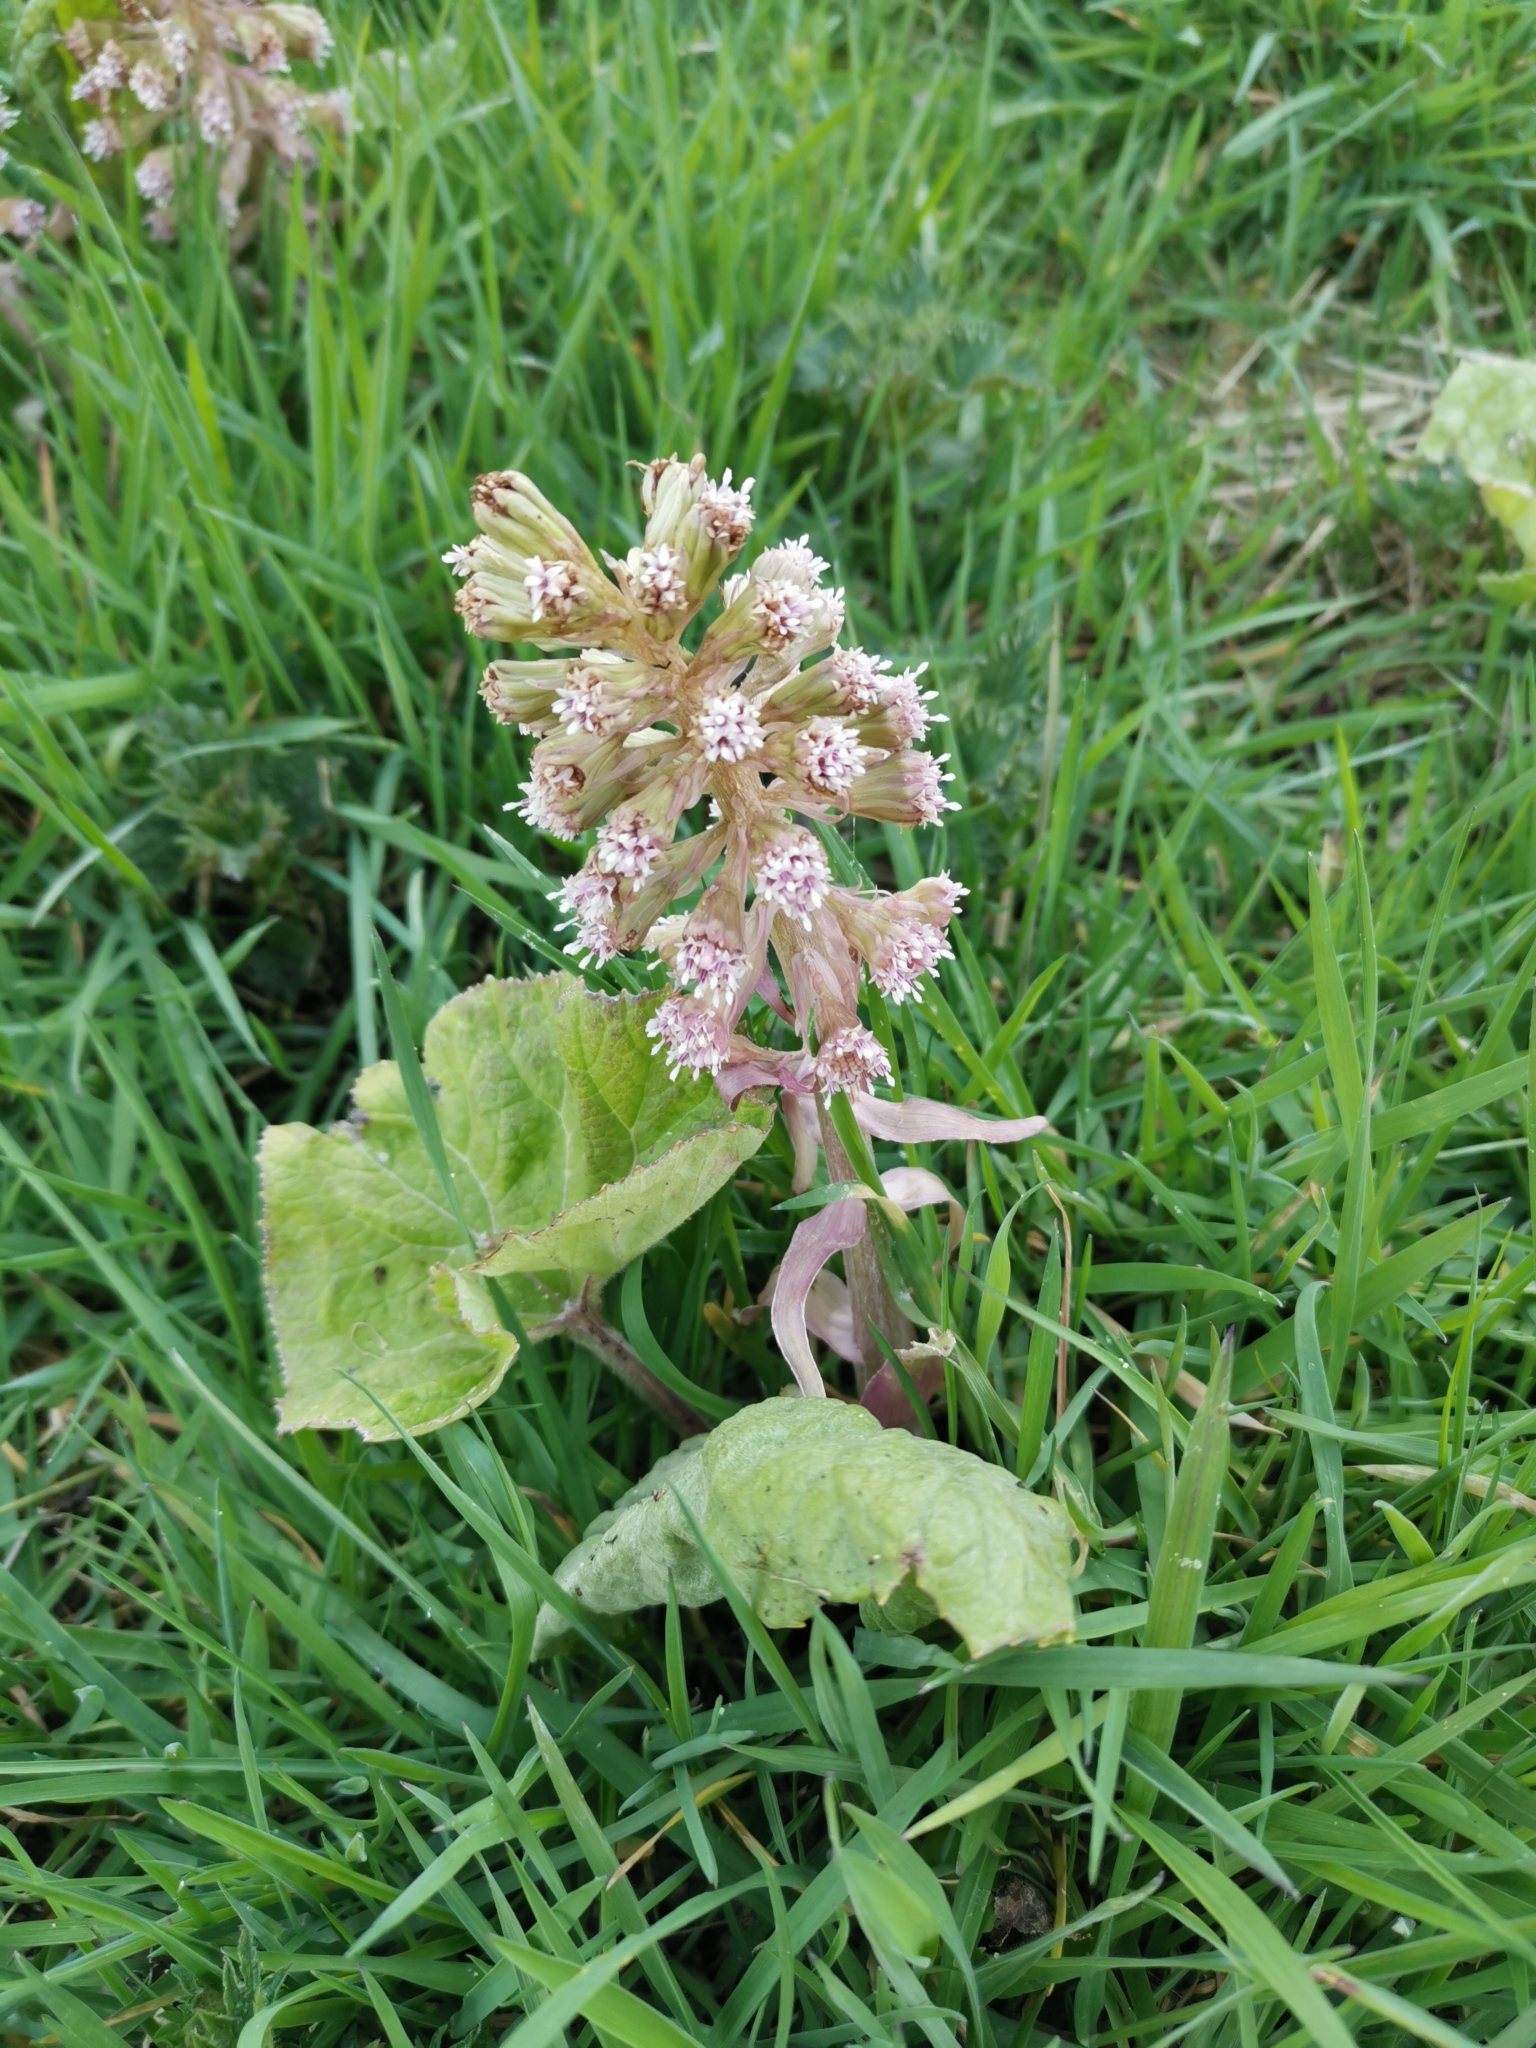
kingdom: Plantae
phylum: Tracheophyta
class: Magnoliopsida
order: Asterales
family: Asteraceae
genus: Petasites
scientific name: Petasites hybridus
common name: Butterbur
